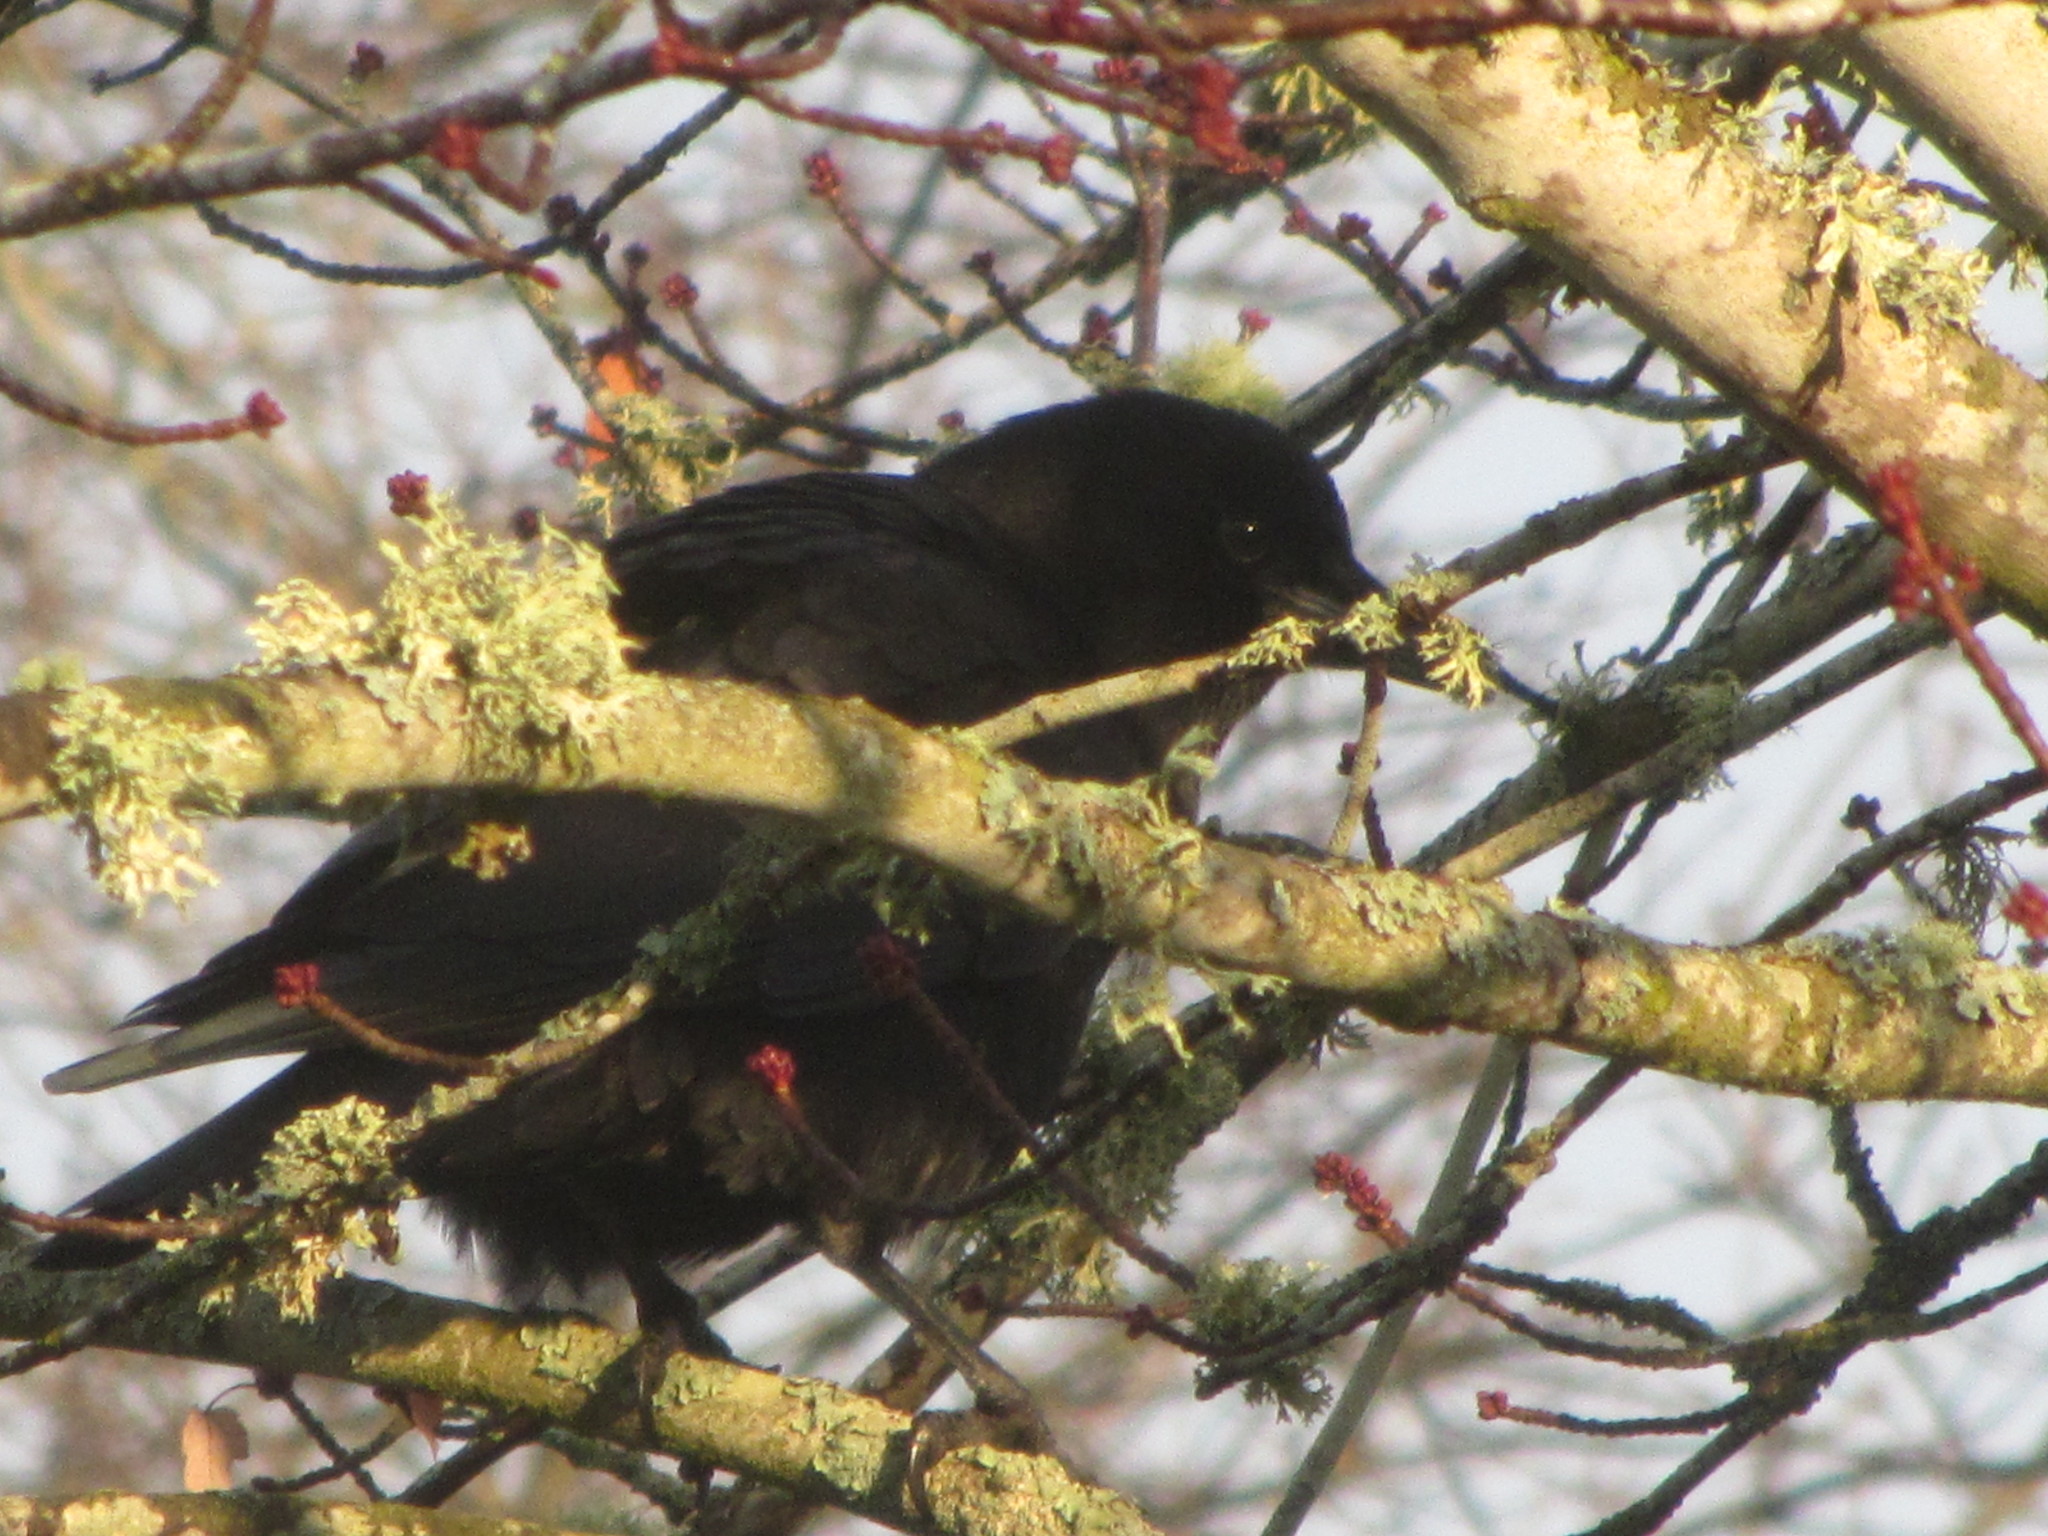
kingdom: Animalia
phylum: Chordata
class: Aves
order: Passeriformes
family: Corvidae
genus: Corvus
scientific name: Corvus brachyrhynchos
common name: American crow
